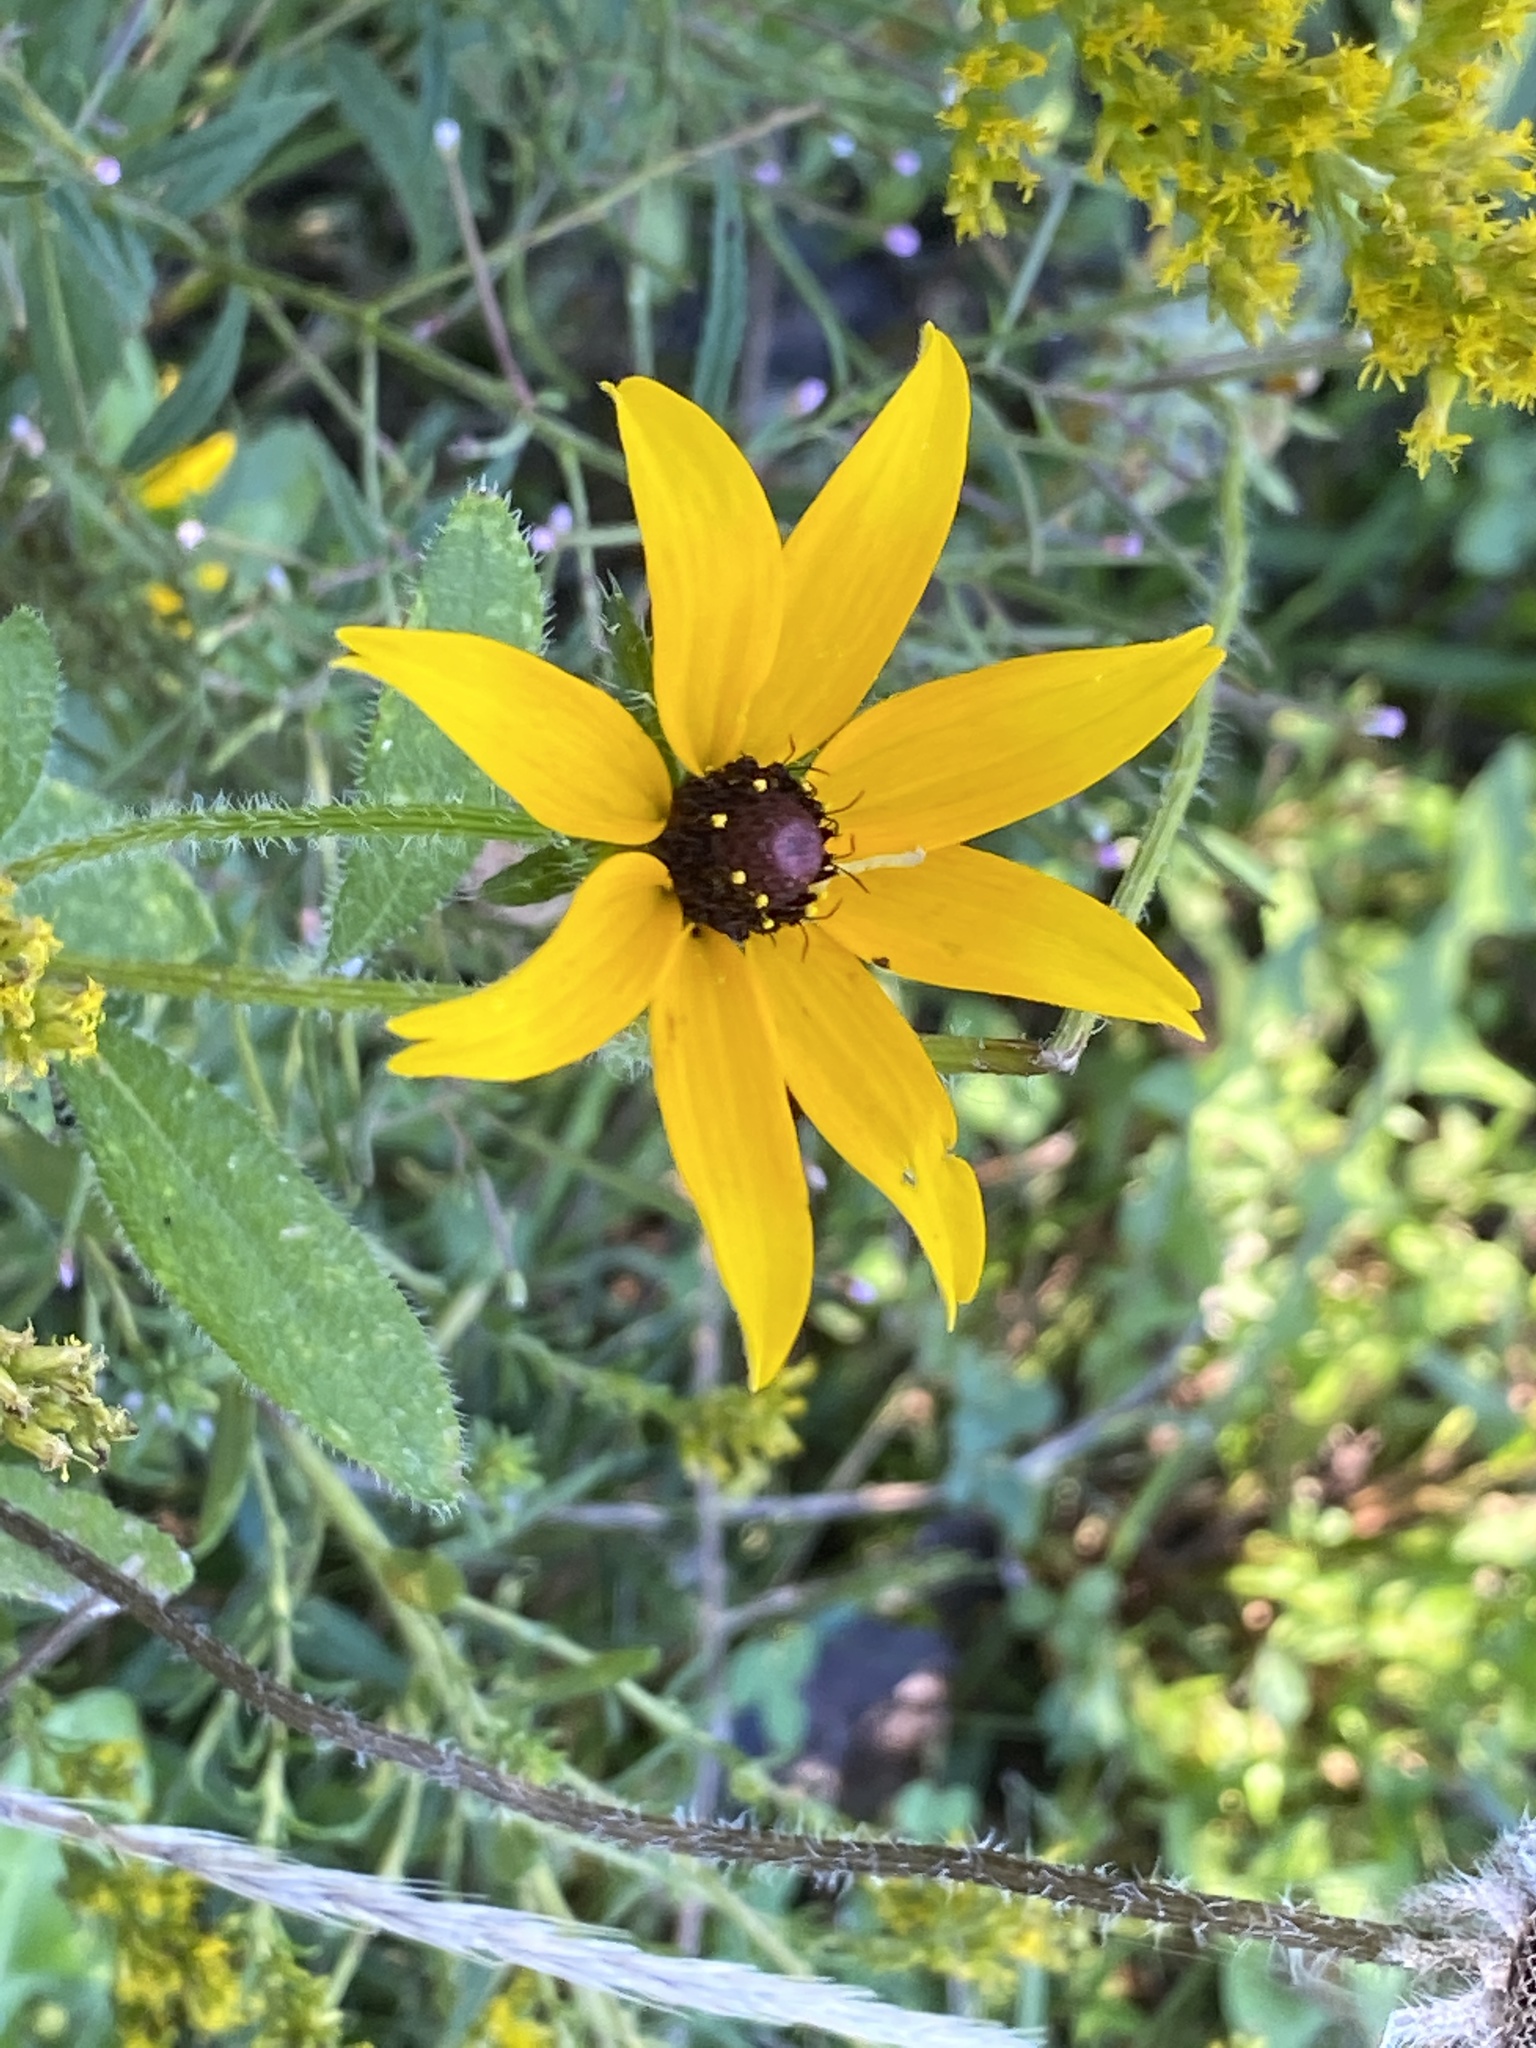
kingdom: Plantae
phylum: Tracheophyta
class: Magnoliopsida
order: Asterales
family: Asteraceae
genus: Rudbeckia
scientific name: Rudbeckia hirta
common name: Black-eyed-susan
